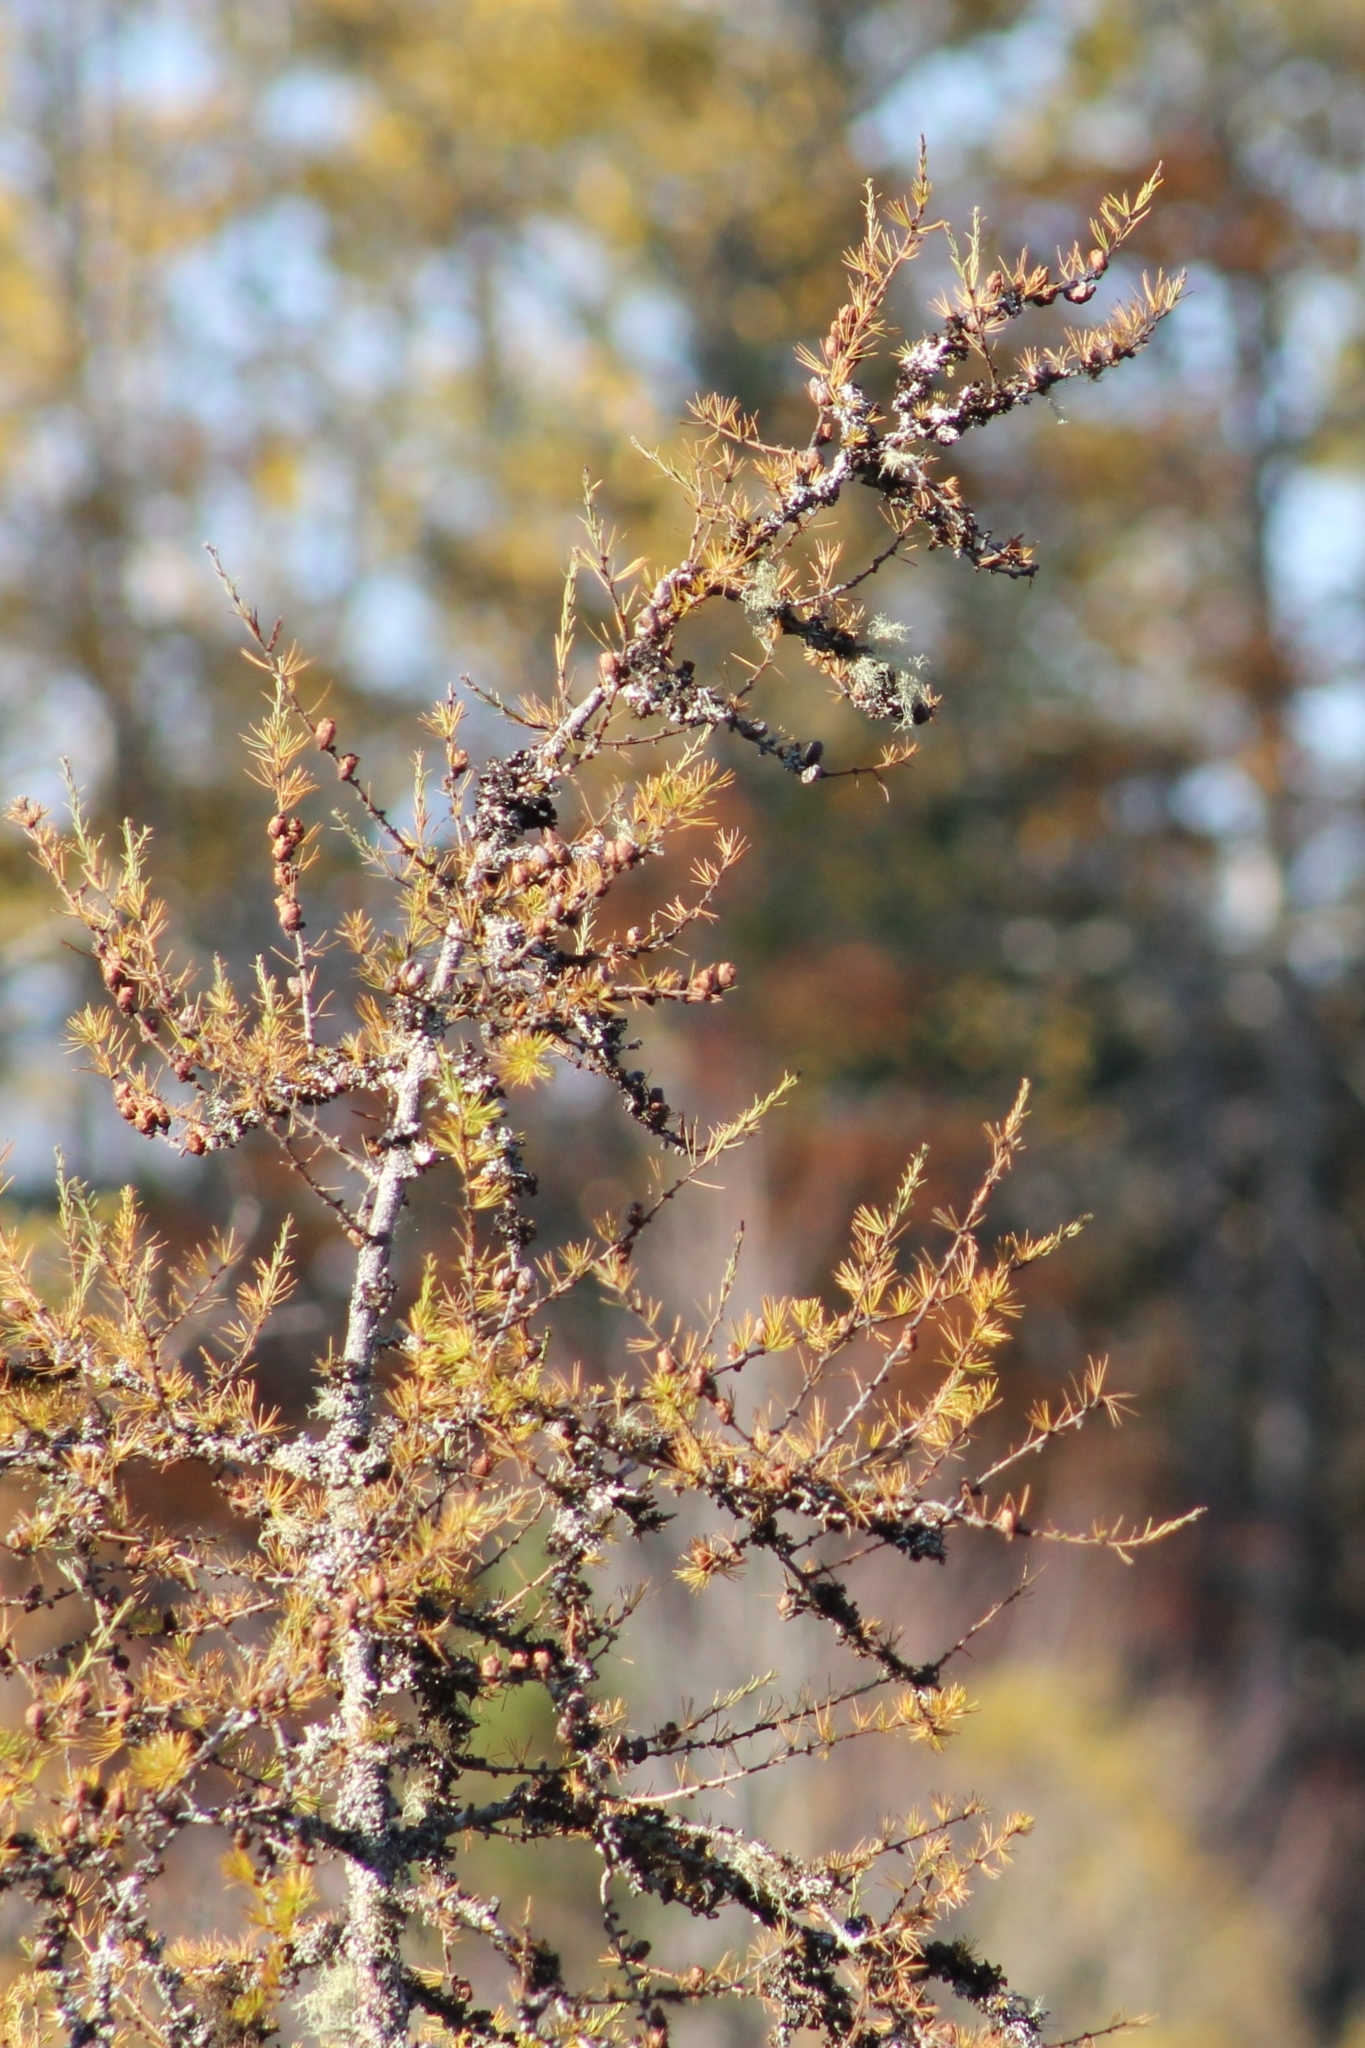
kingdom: Plantae
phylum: Tracheophyta
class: Pinopsida
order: Pinales
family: Pinaceae
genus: Larix
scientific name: Larix laricina
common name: American larch
